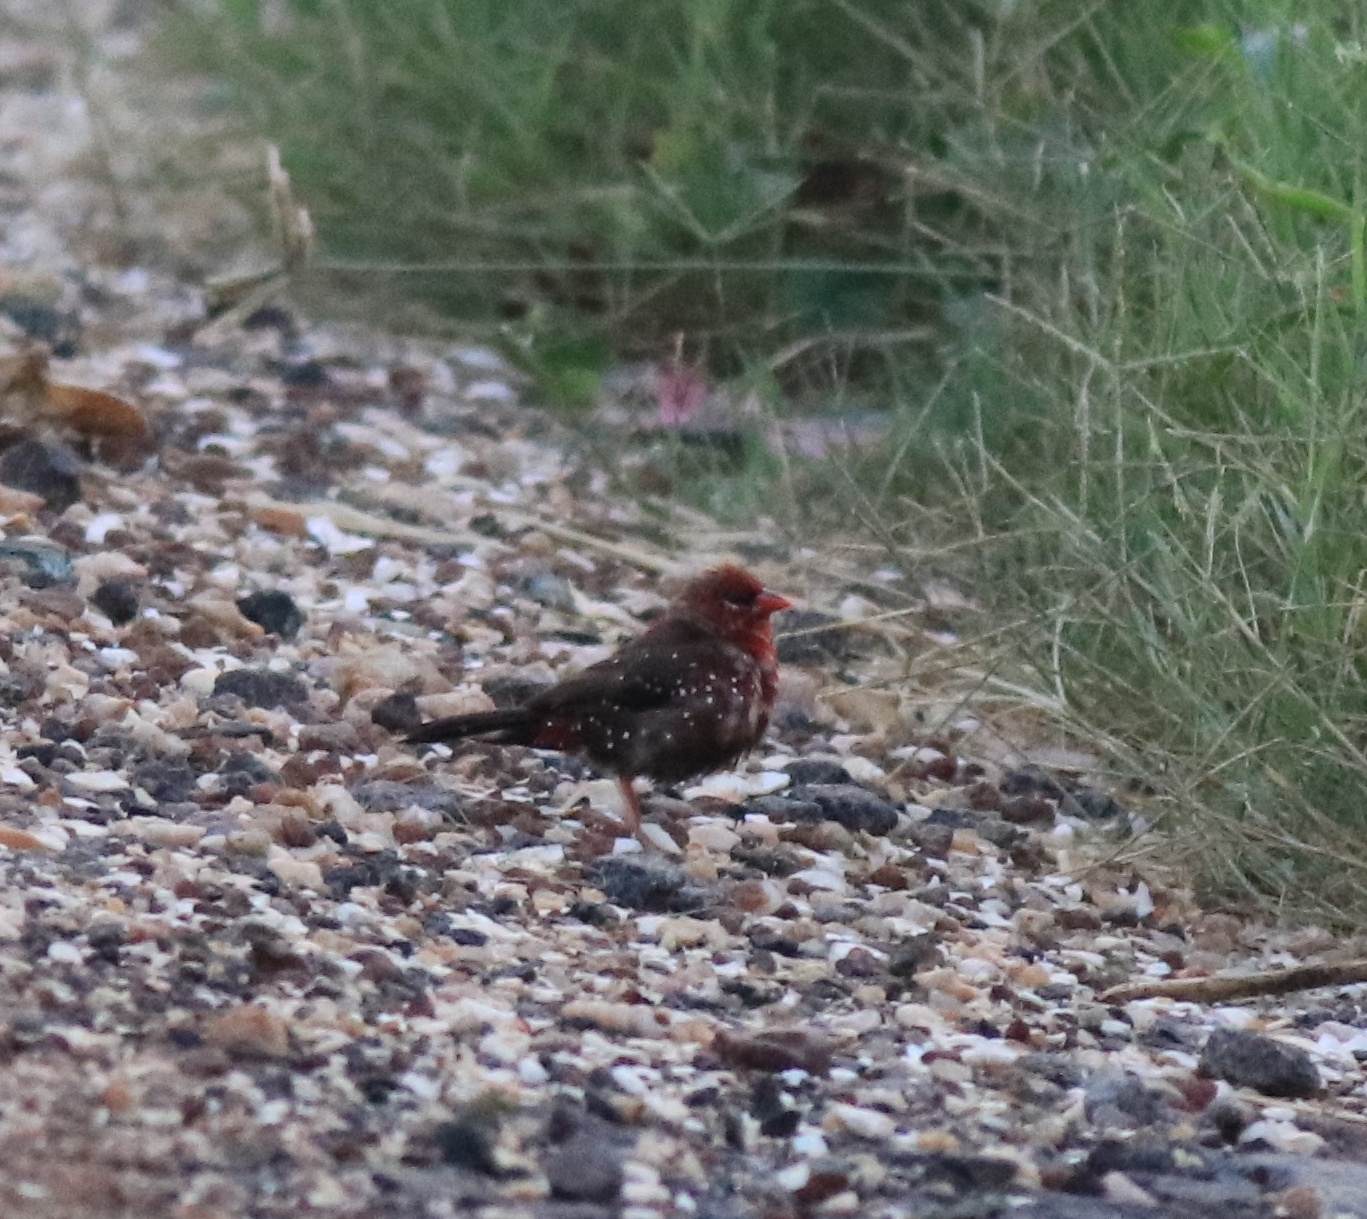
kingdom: Animalia
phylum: Chordata
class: Aves
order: Passeriformes
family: Estrildidae
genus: Amandava
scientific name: Amandava amandava
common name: Red avadavat
